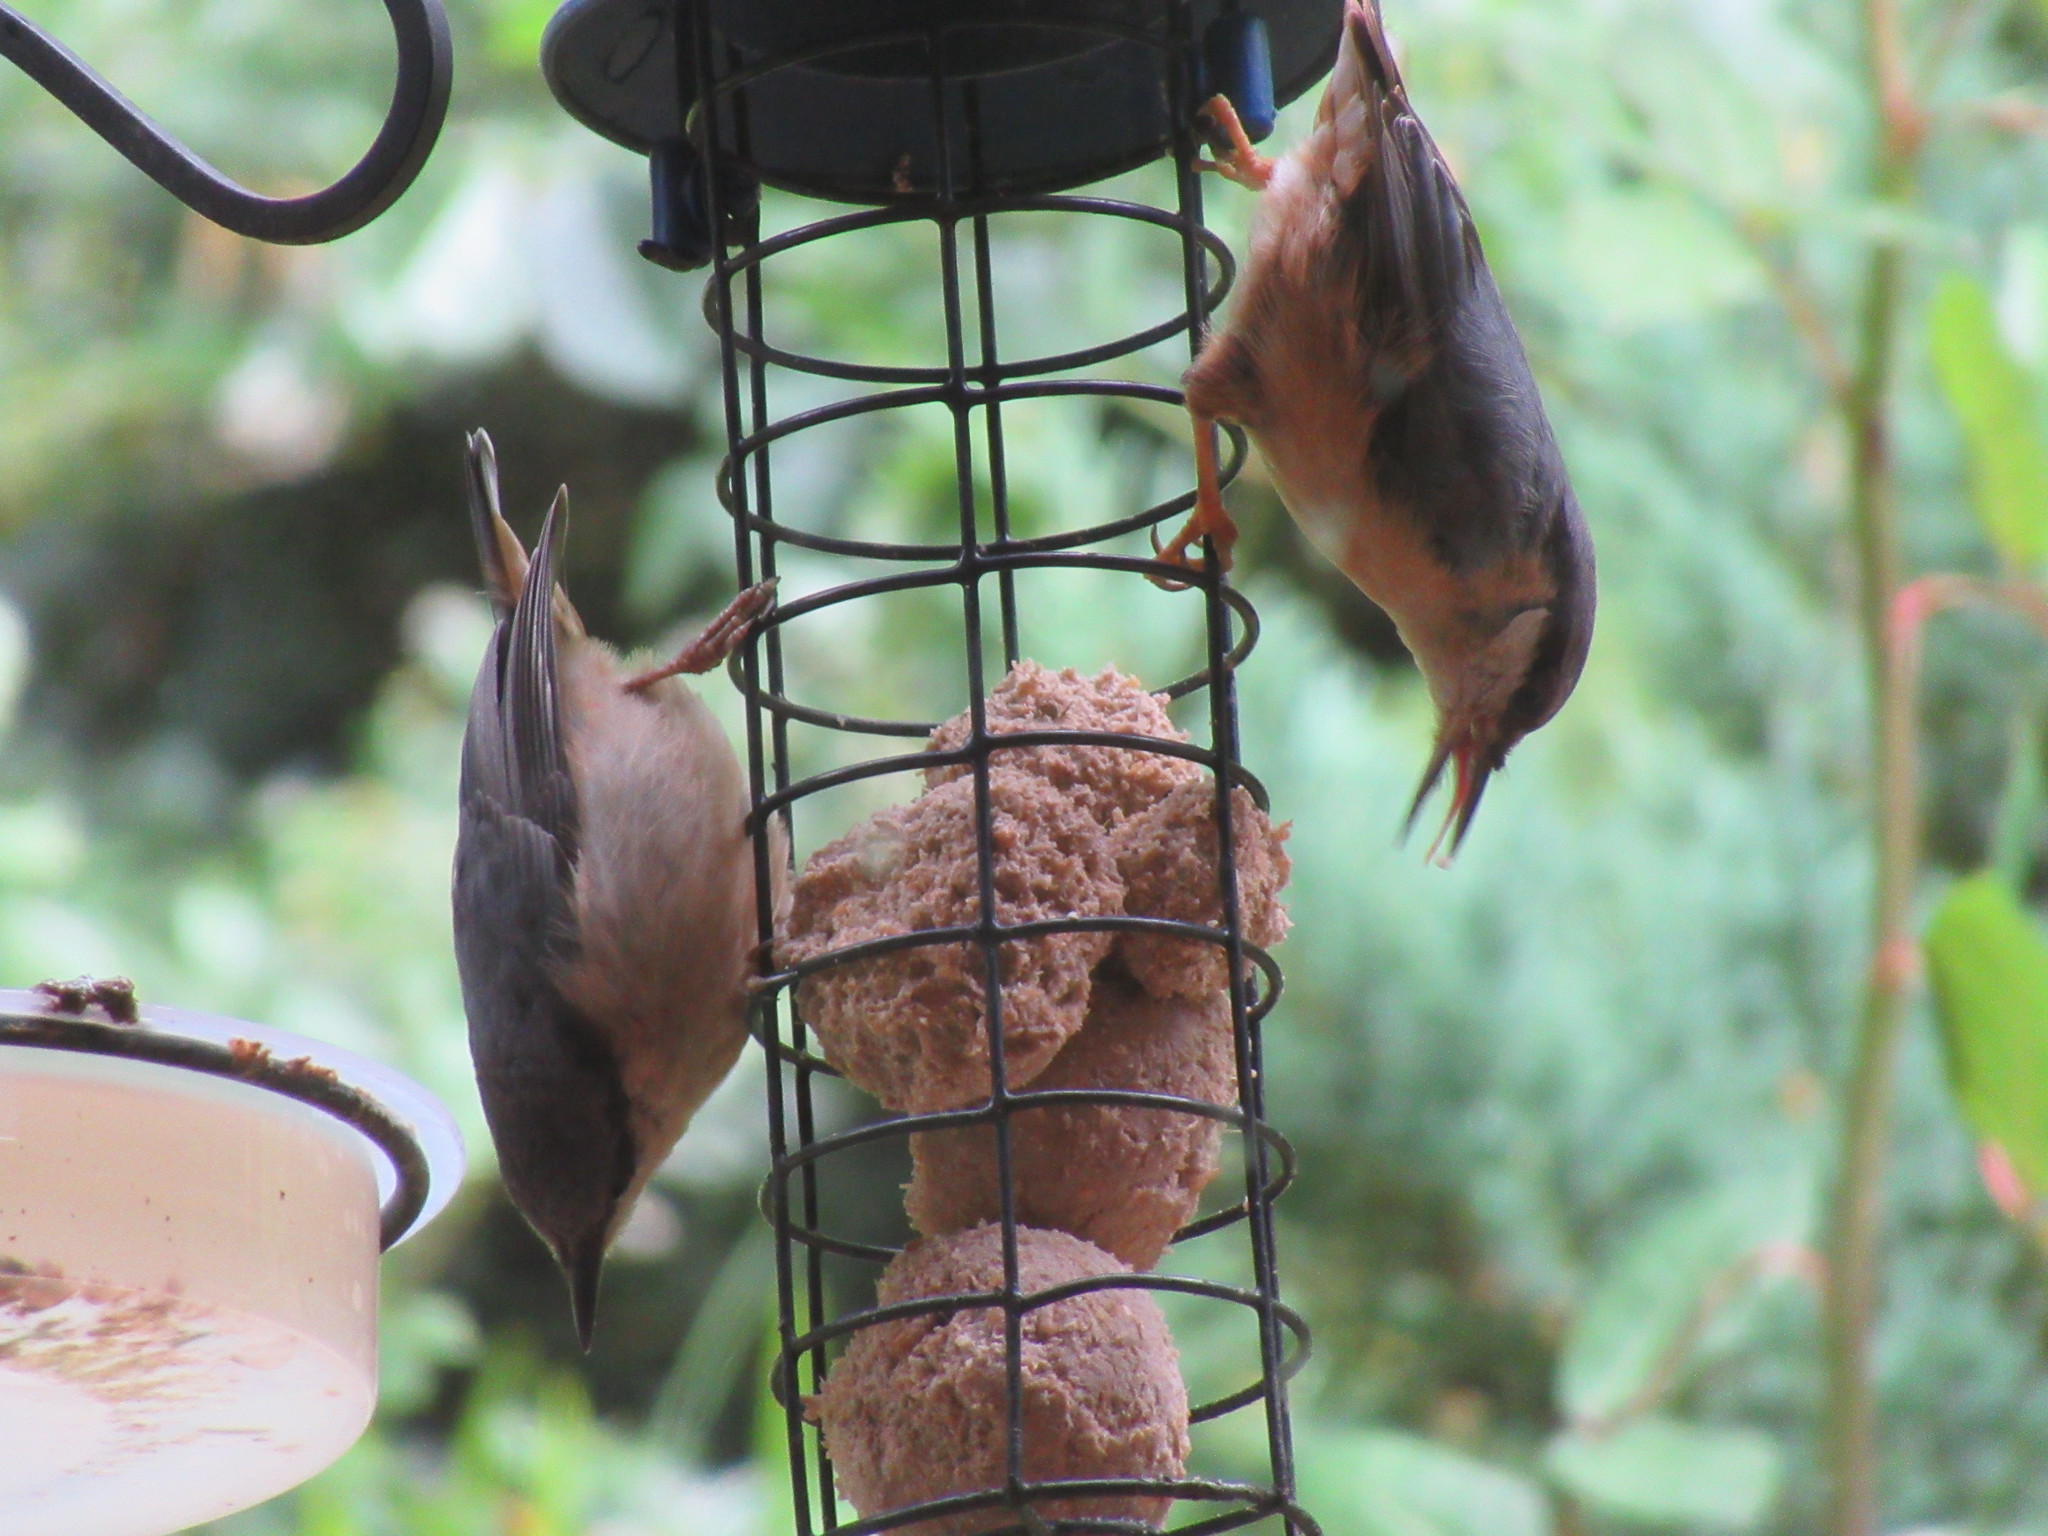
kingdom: Animalia
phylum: Chordata
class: Aves
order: Passeriformes
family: Sittidae
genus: Sitta
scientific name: Sitta europaea
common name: Eurasian nuthatch
